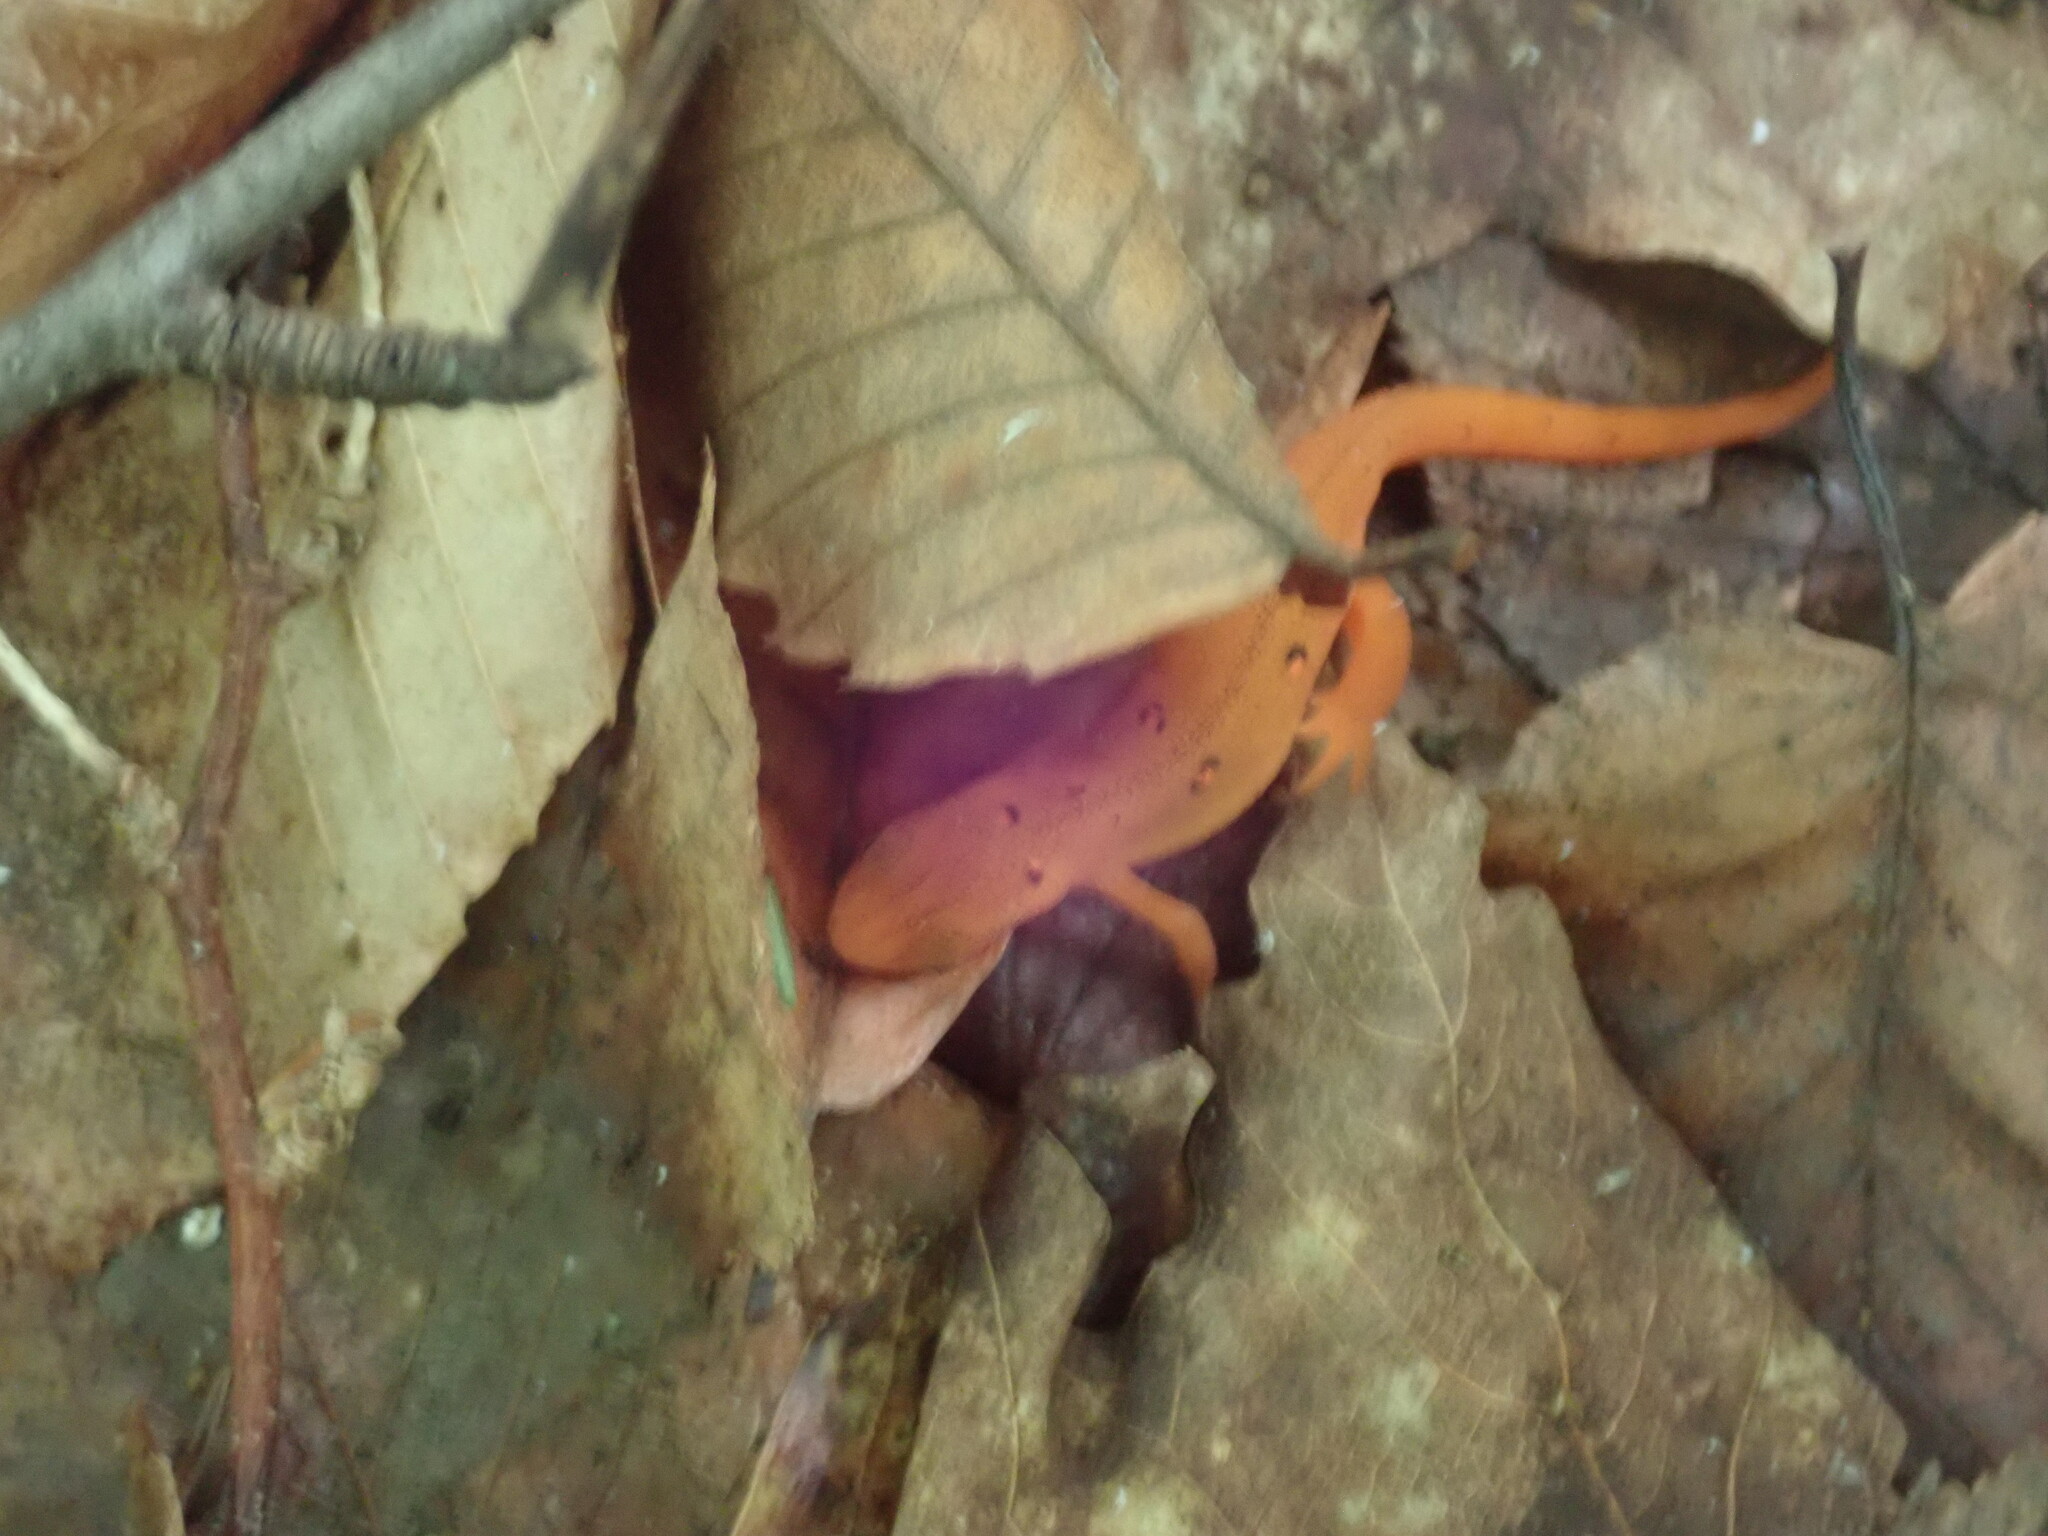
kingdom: Animalia
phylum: Chordata
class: Amphibia
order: Caudata
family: Salamandridae
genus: Notophthalmus
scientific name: Notophthalmus viridescens
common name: Eastern newt
